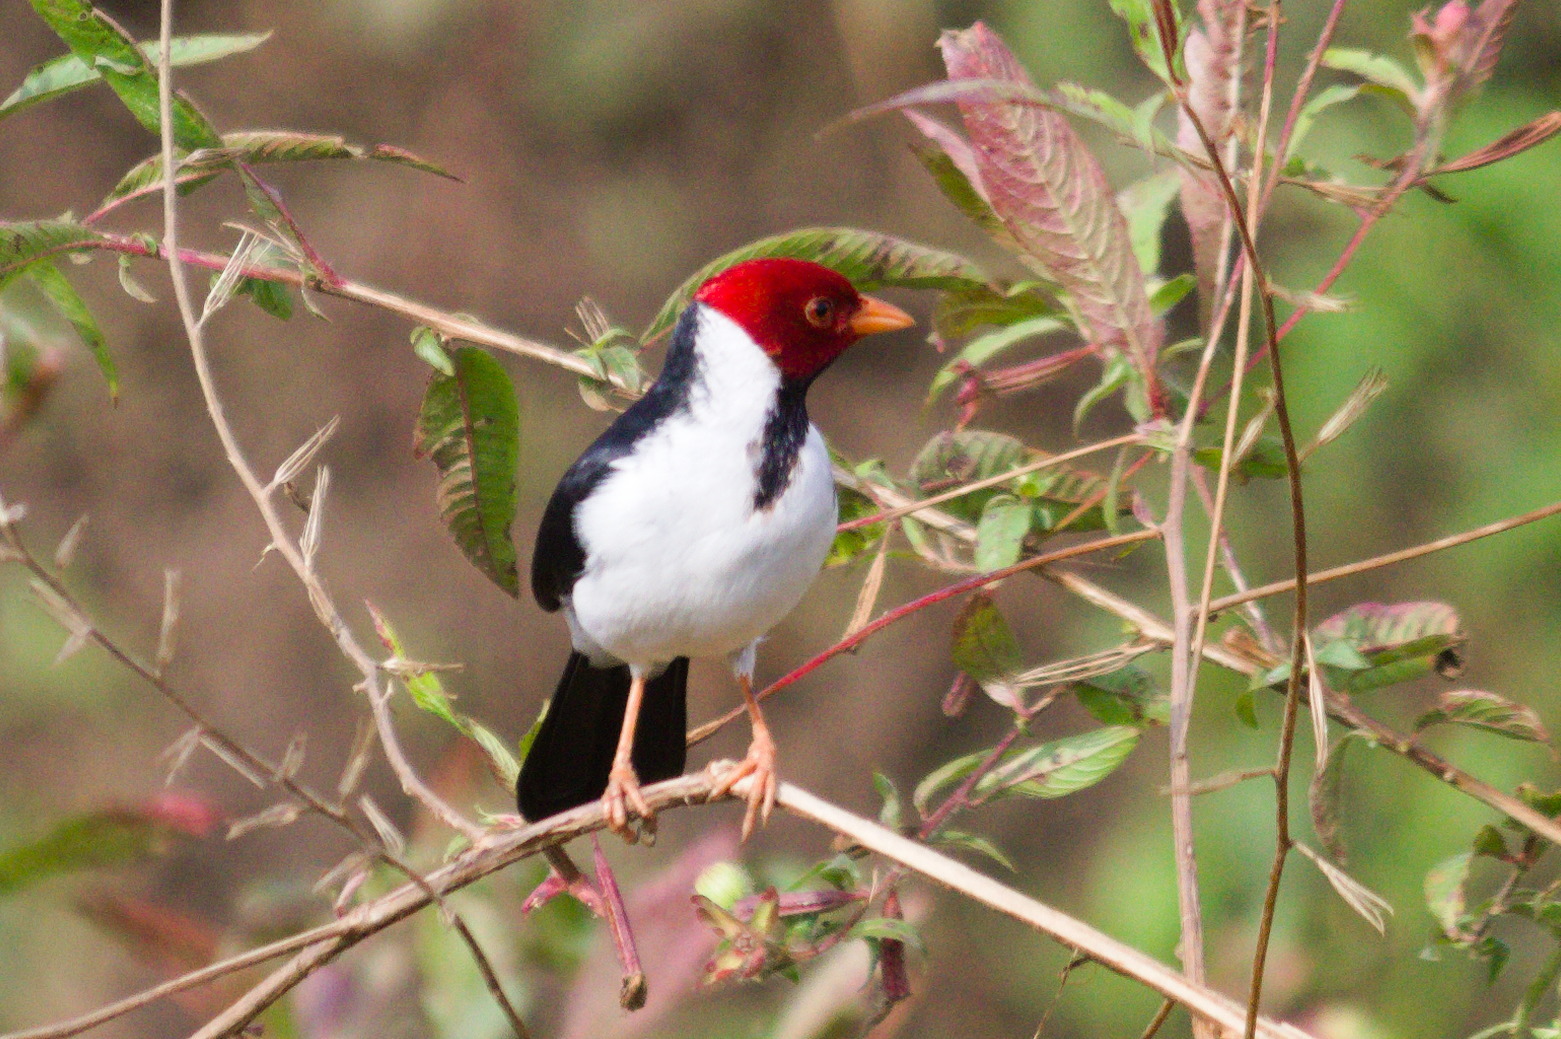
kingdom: Animalia
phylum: Chordata
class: Aves
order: Passeriformes
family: Thraupidae
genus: Paroaria
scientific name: Paroaria capitata
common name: Yellow-billed cardinal
